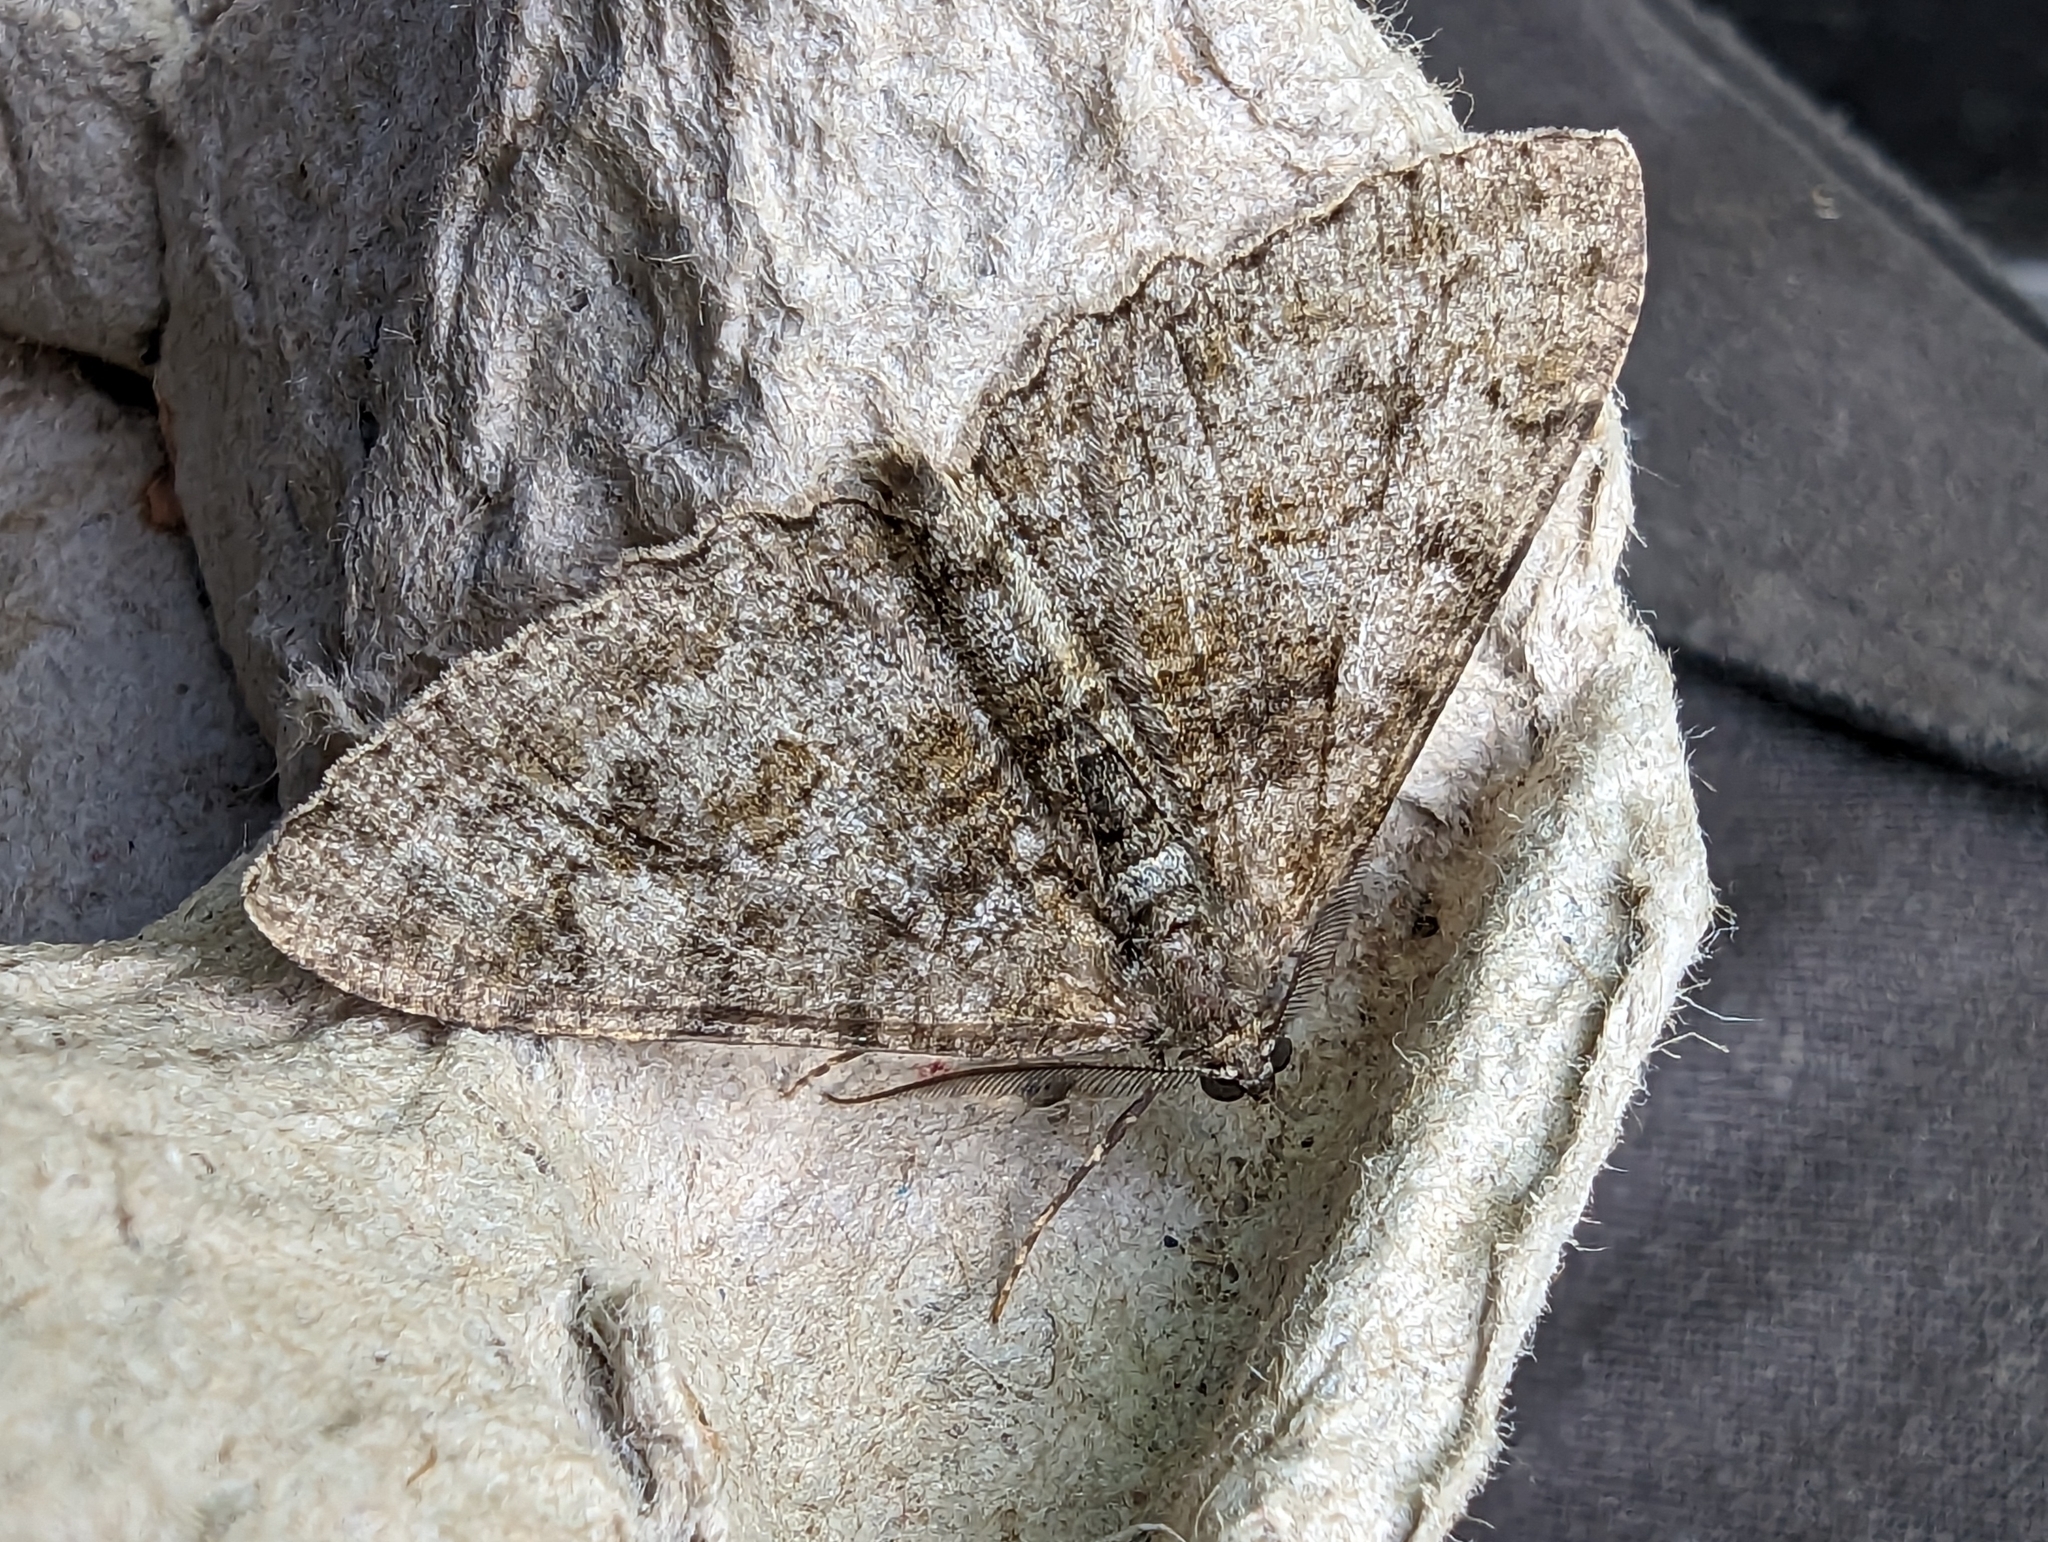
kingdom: Animalia
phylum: Arthropoda
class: Insecta
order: Lepidoptera
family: Geometridae
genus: Alcis
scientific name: Alcis repandata
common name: Mottled beauty
